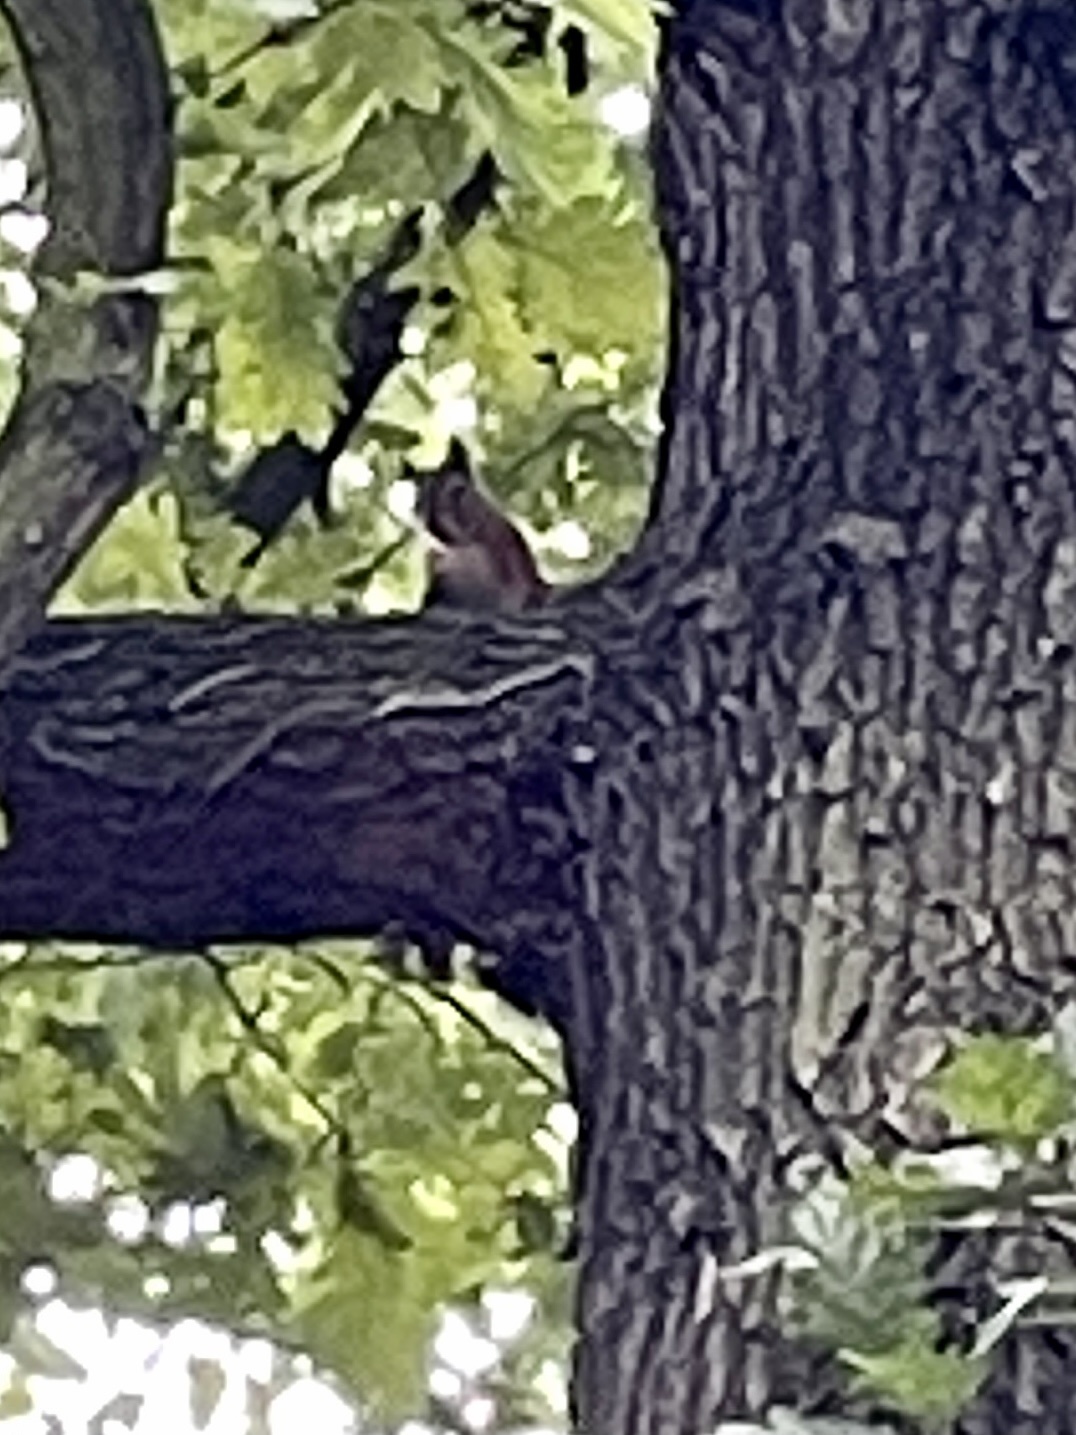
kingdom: Animalia
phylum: Chordata
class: Mammalia
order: Rodentia
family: Sciuridae
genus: Sciurus
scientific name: Sciurus vulgaris
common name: Eurasian red squirrel
